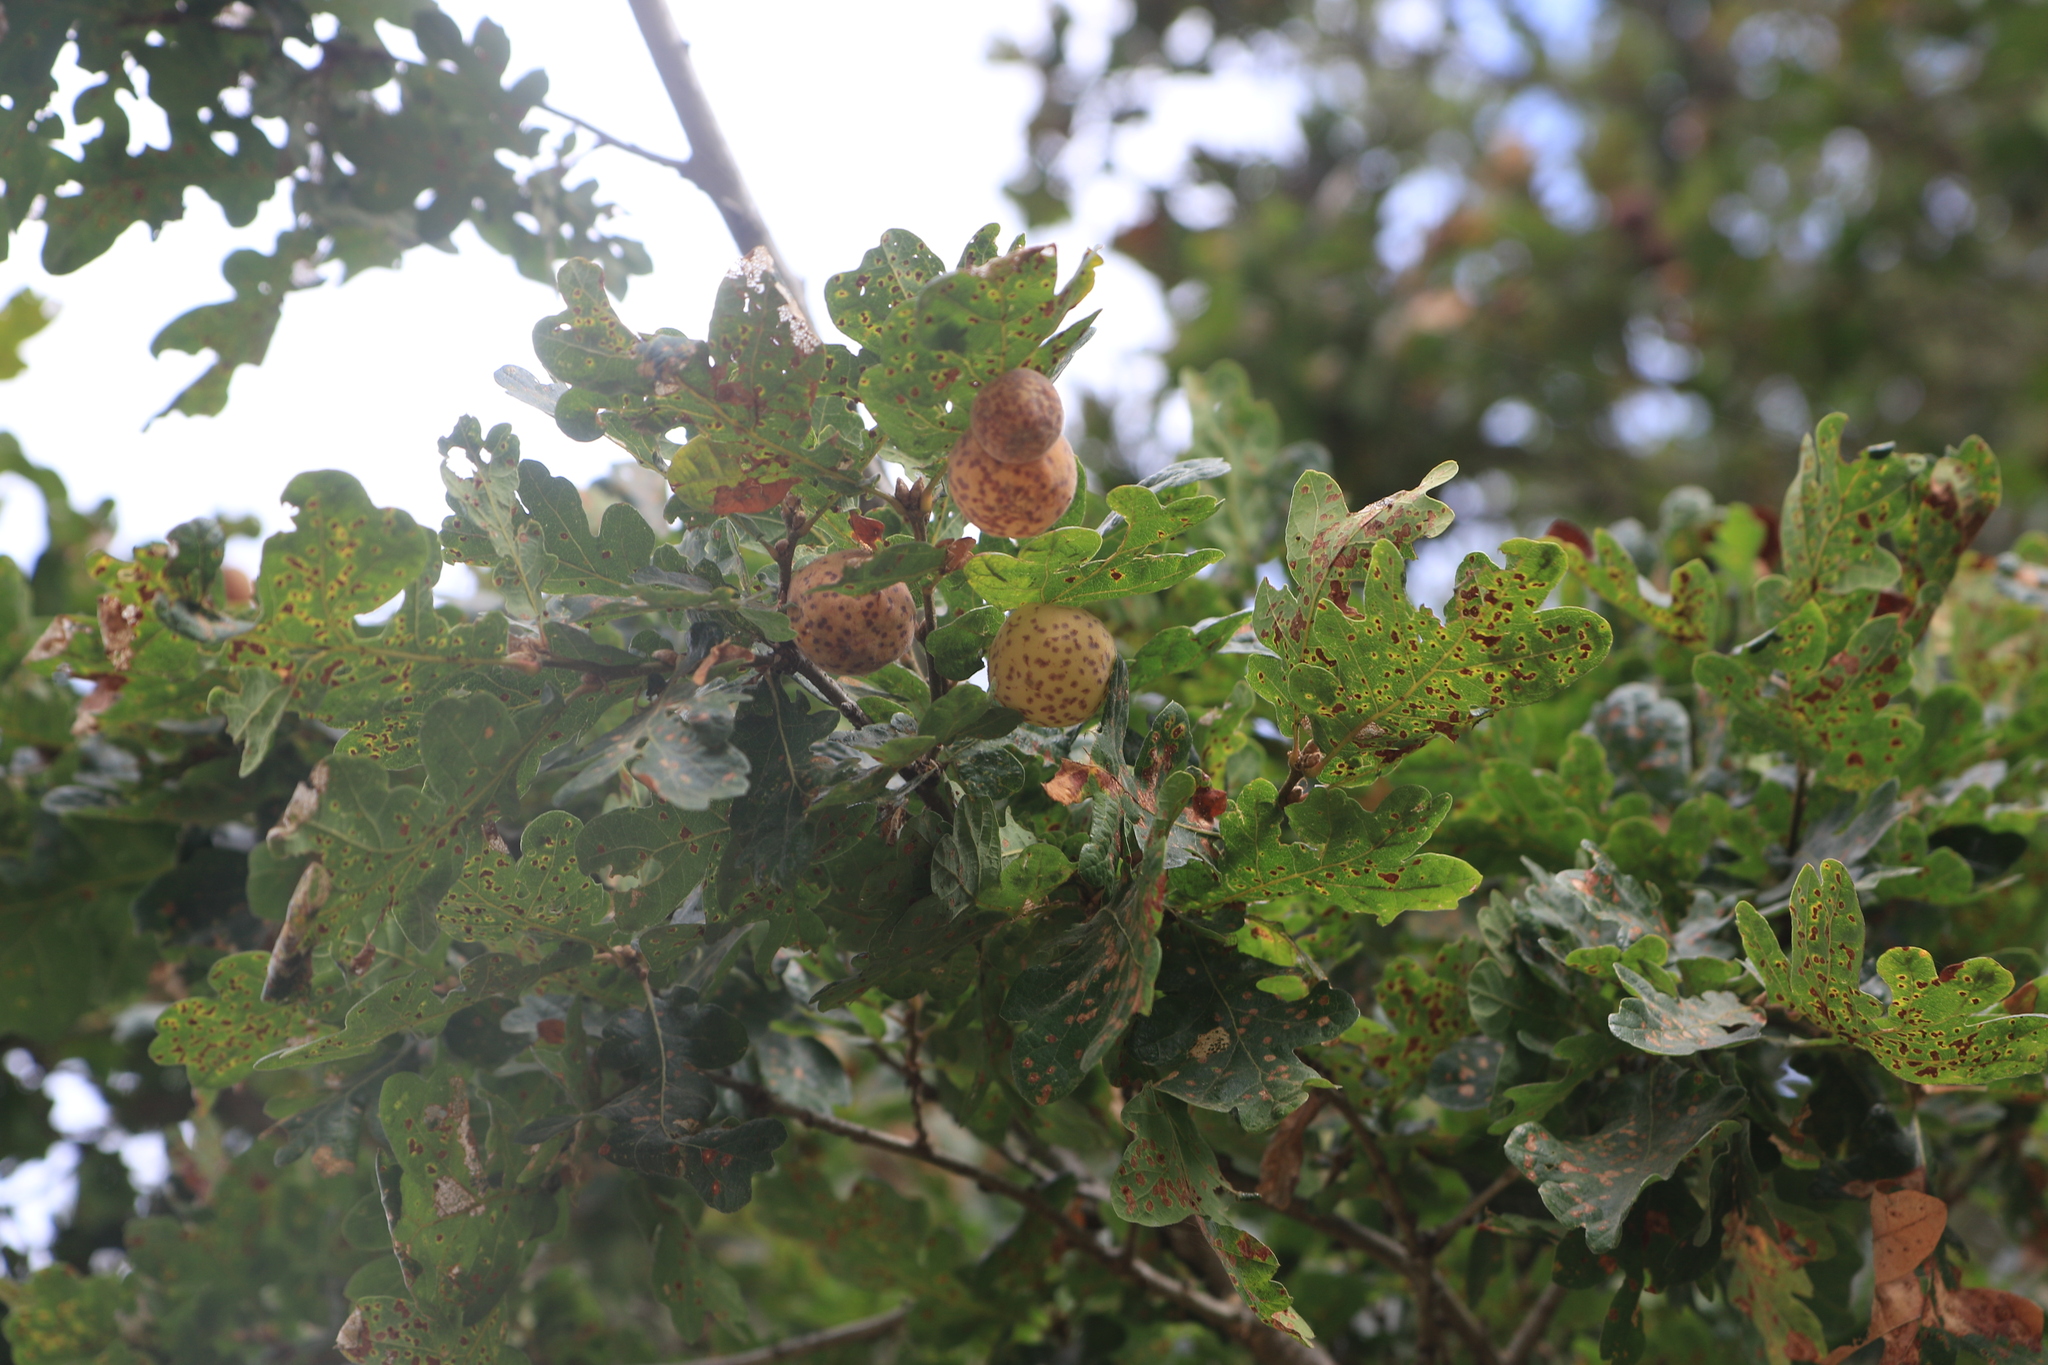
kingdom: Animalia
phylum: Arthropoda
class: Insecta
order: Hymenoptera
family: Cynipidae
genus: Cynips
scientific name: Cynips
